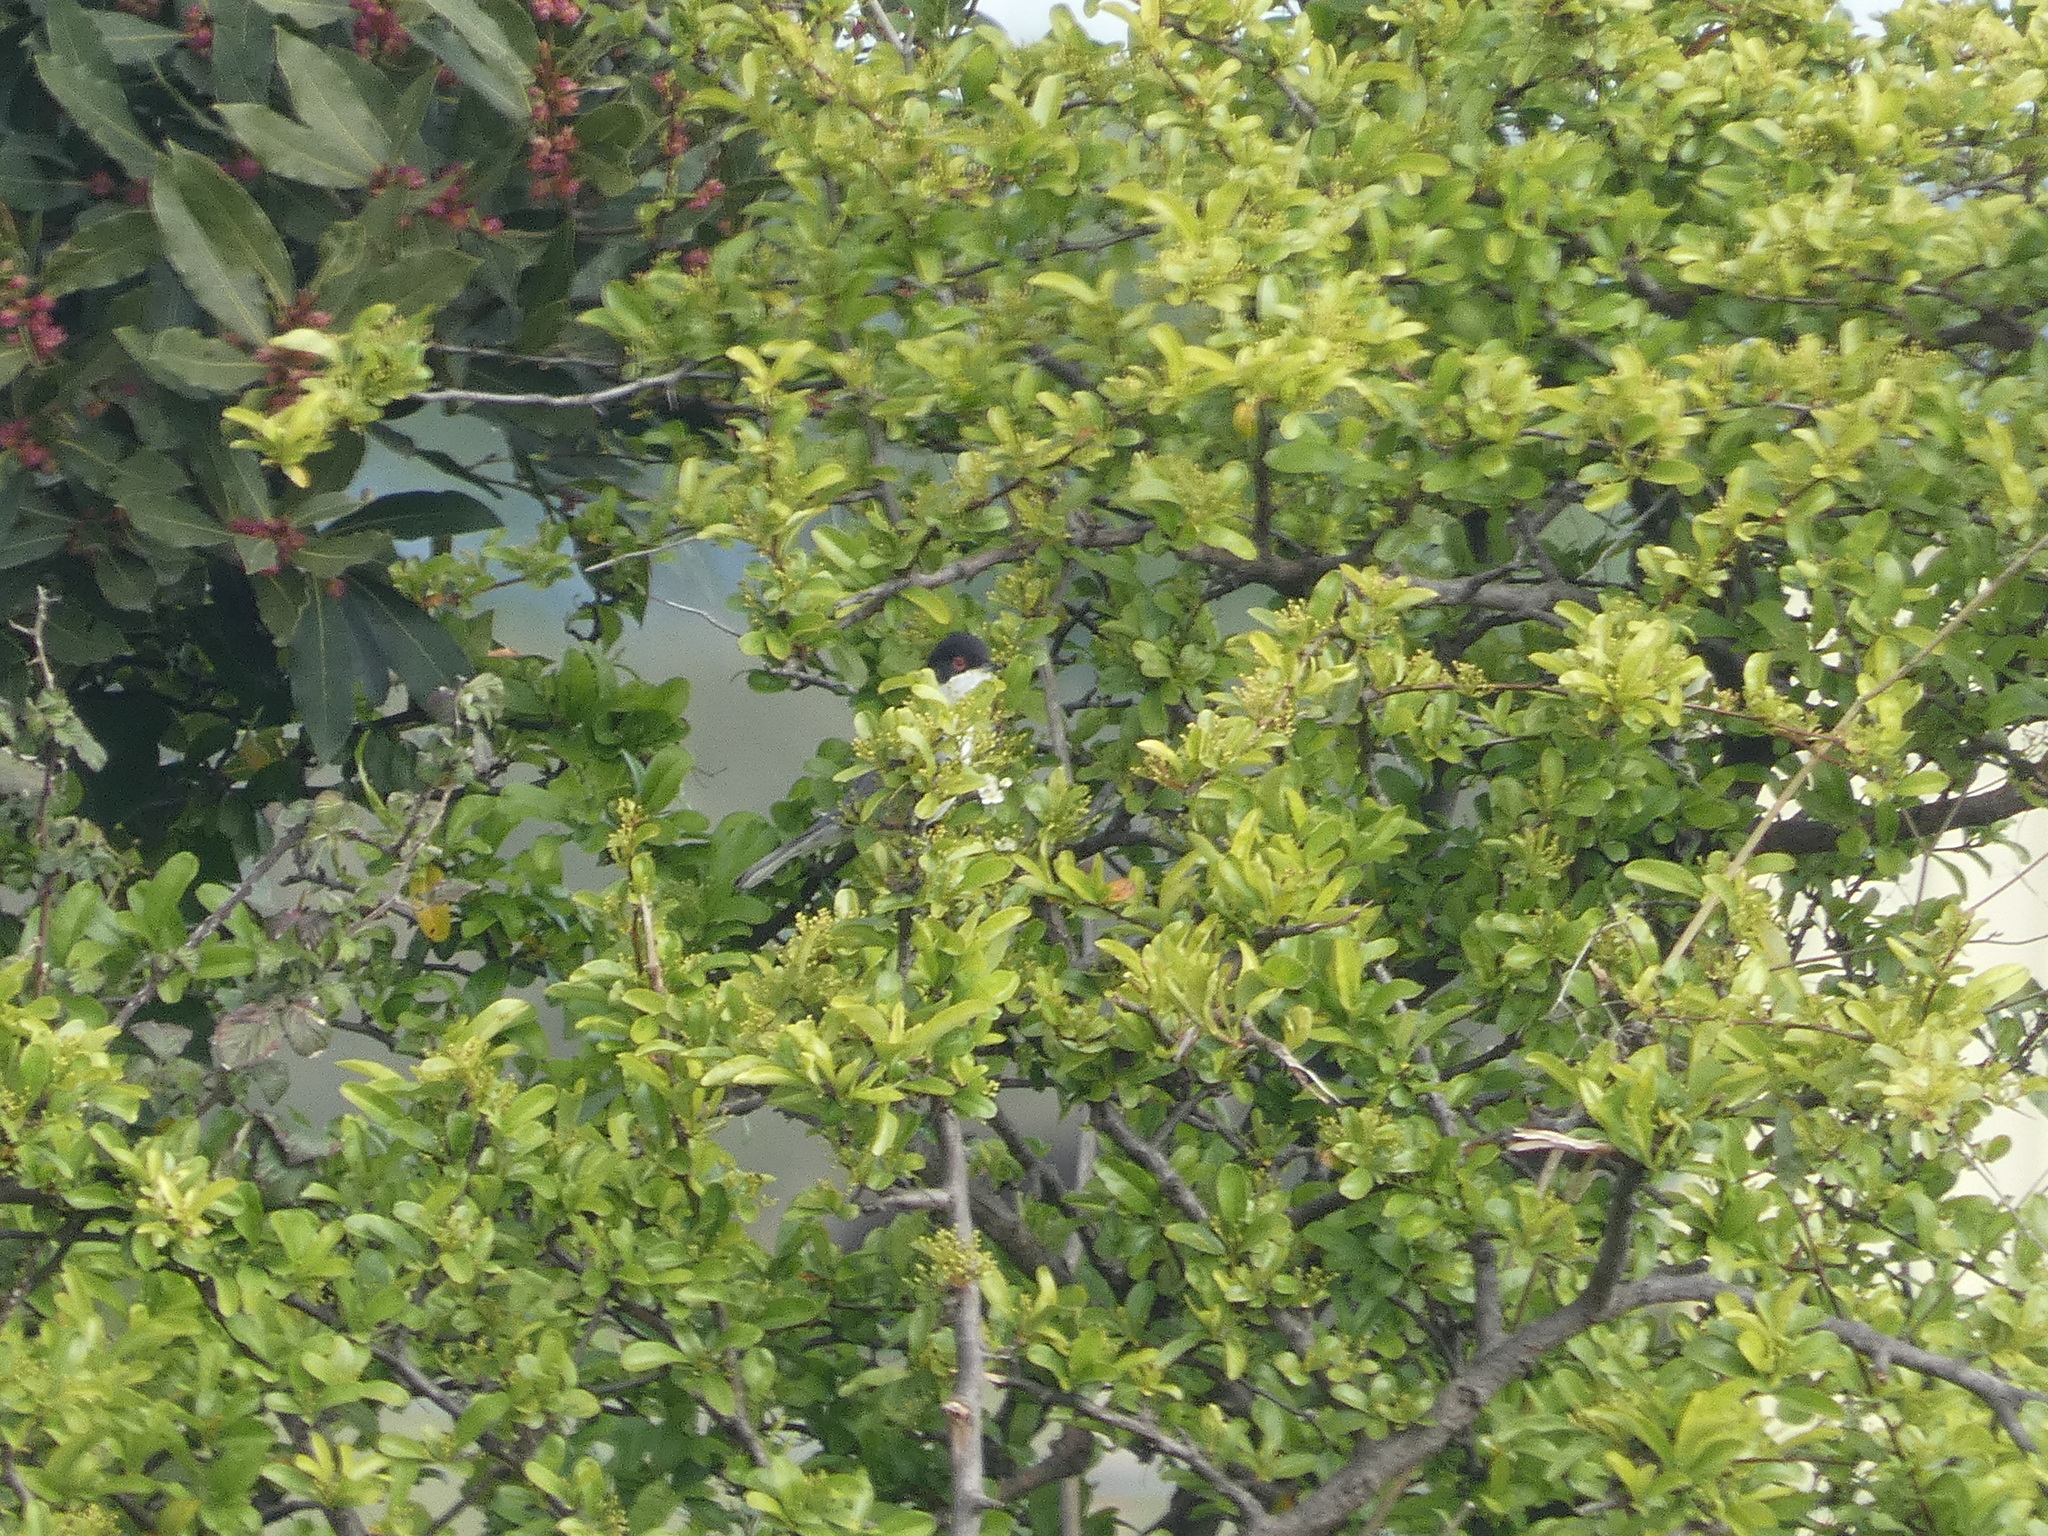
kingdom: Animalia
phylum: Chordata
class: Aves
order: Passeriformes
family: Sylviidae
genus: Curruca
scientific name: Curruca melanocephala
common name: Sardinian warbler
